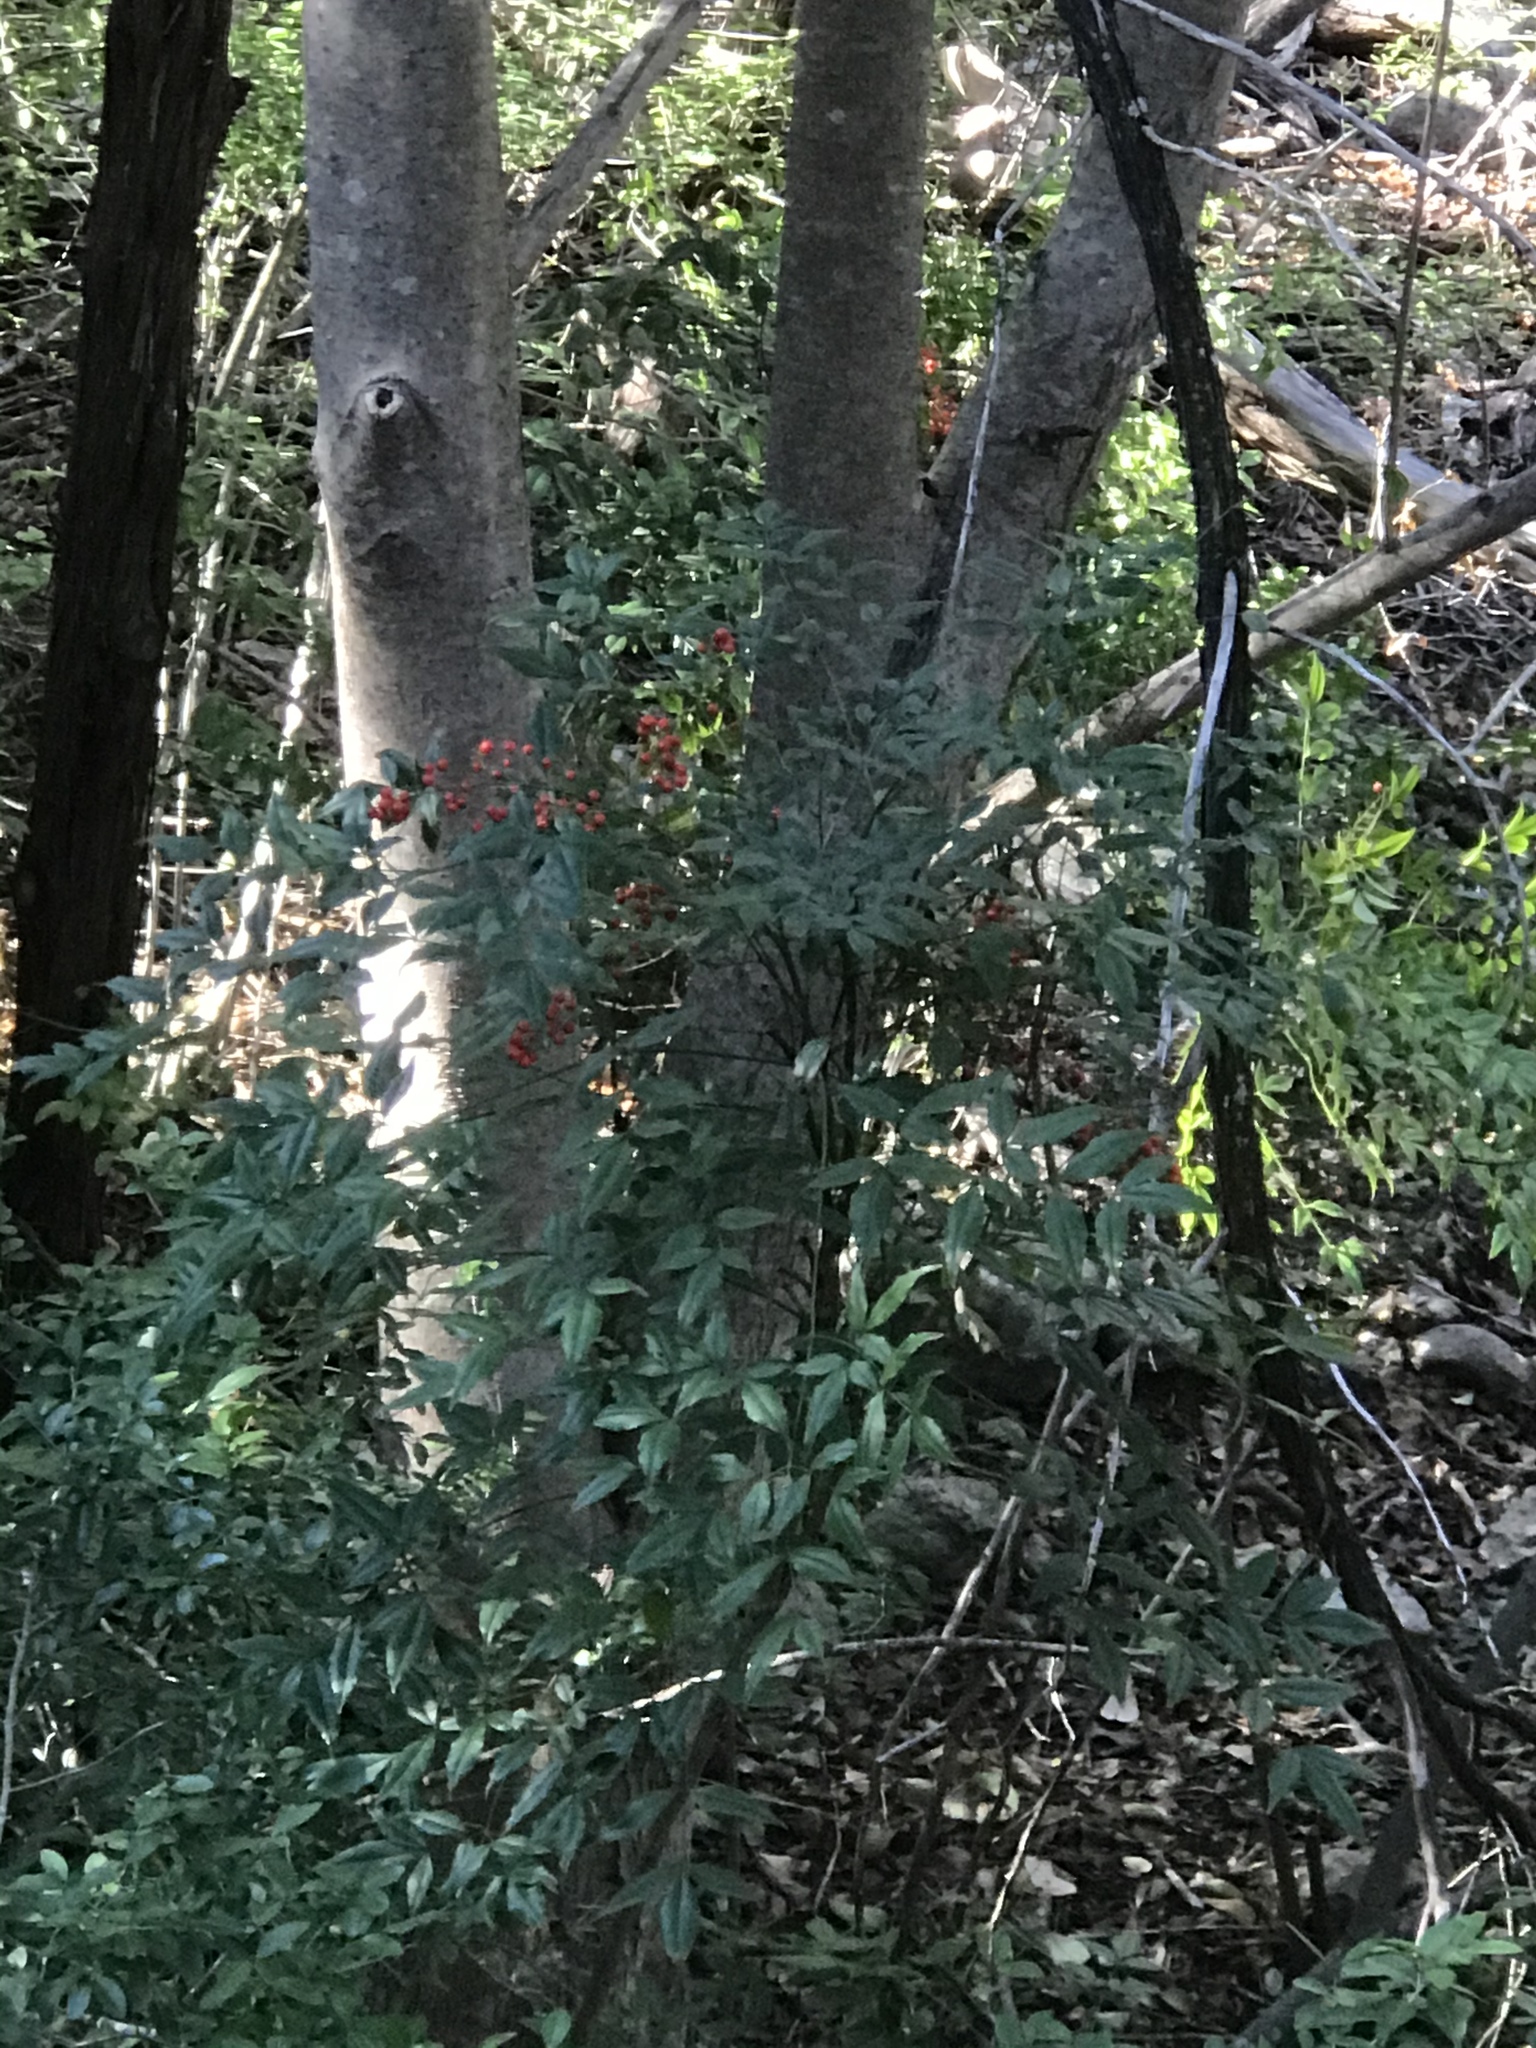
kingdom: Plantae
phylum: Tracheophyta
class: Magnoliopsida
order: Ranunculales
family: Berberidaceae
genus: Nandina
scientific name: Nandina domestica
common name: Sacred bamboo
